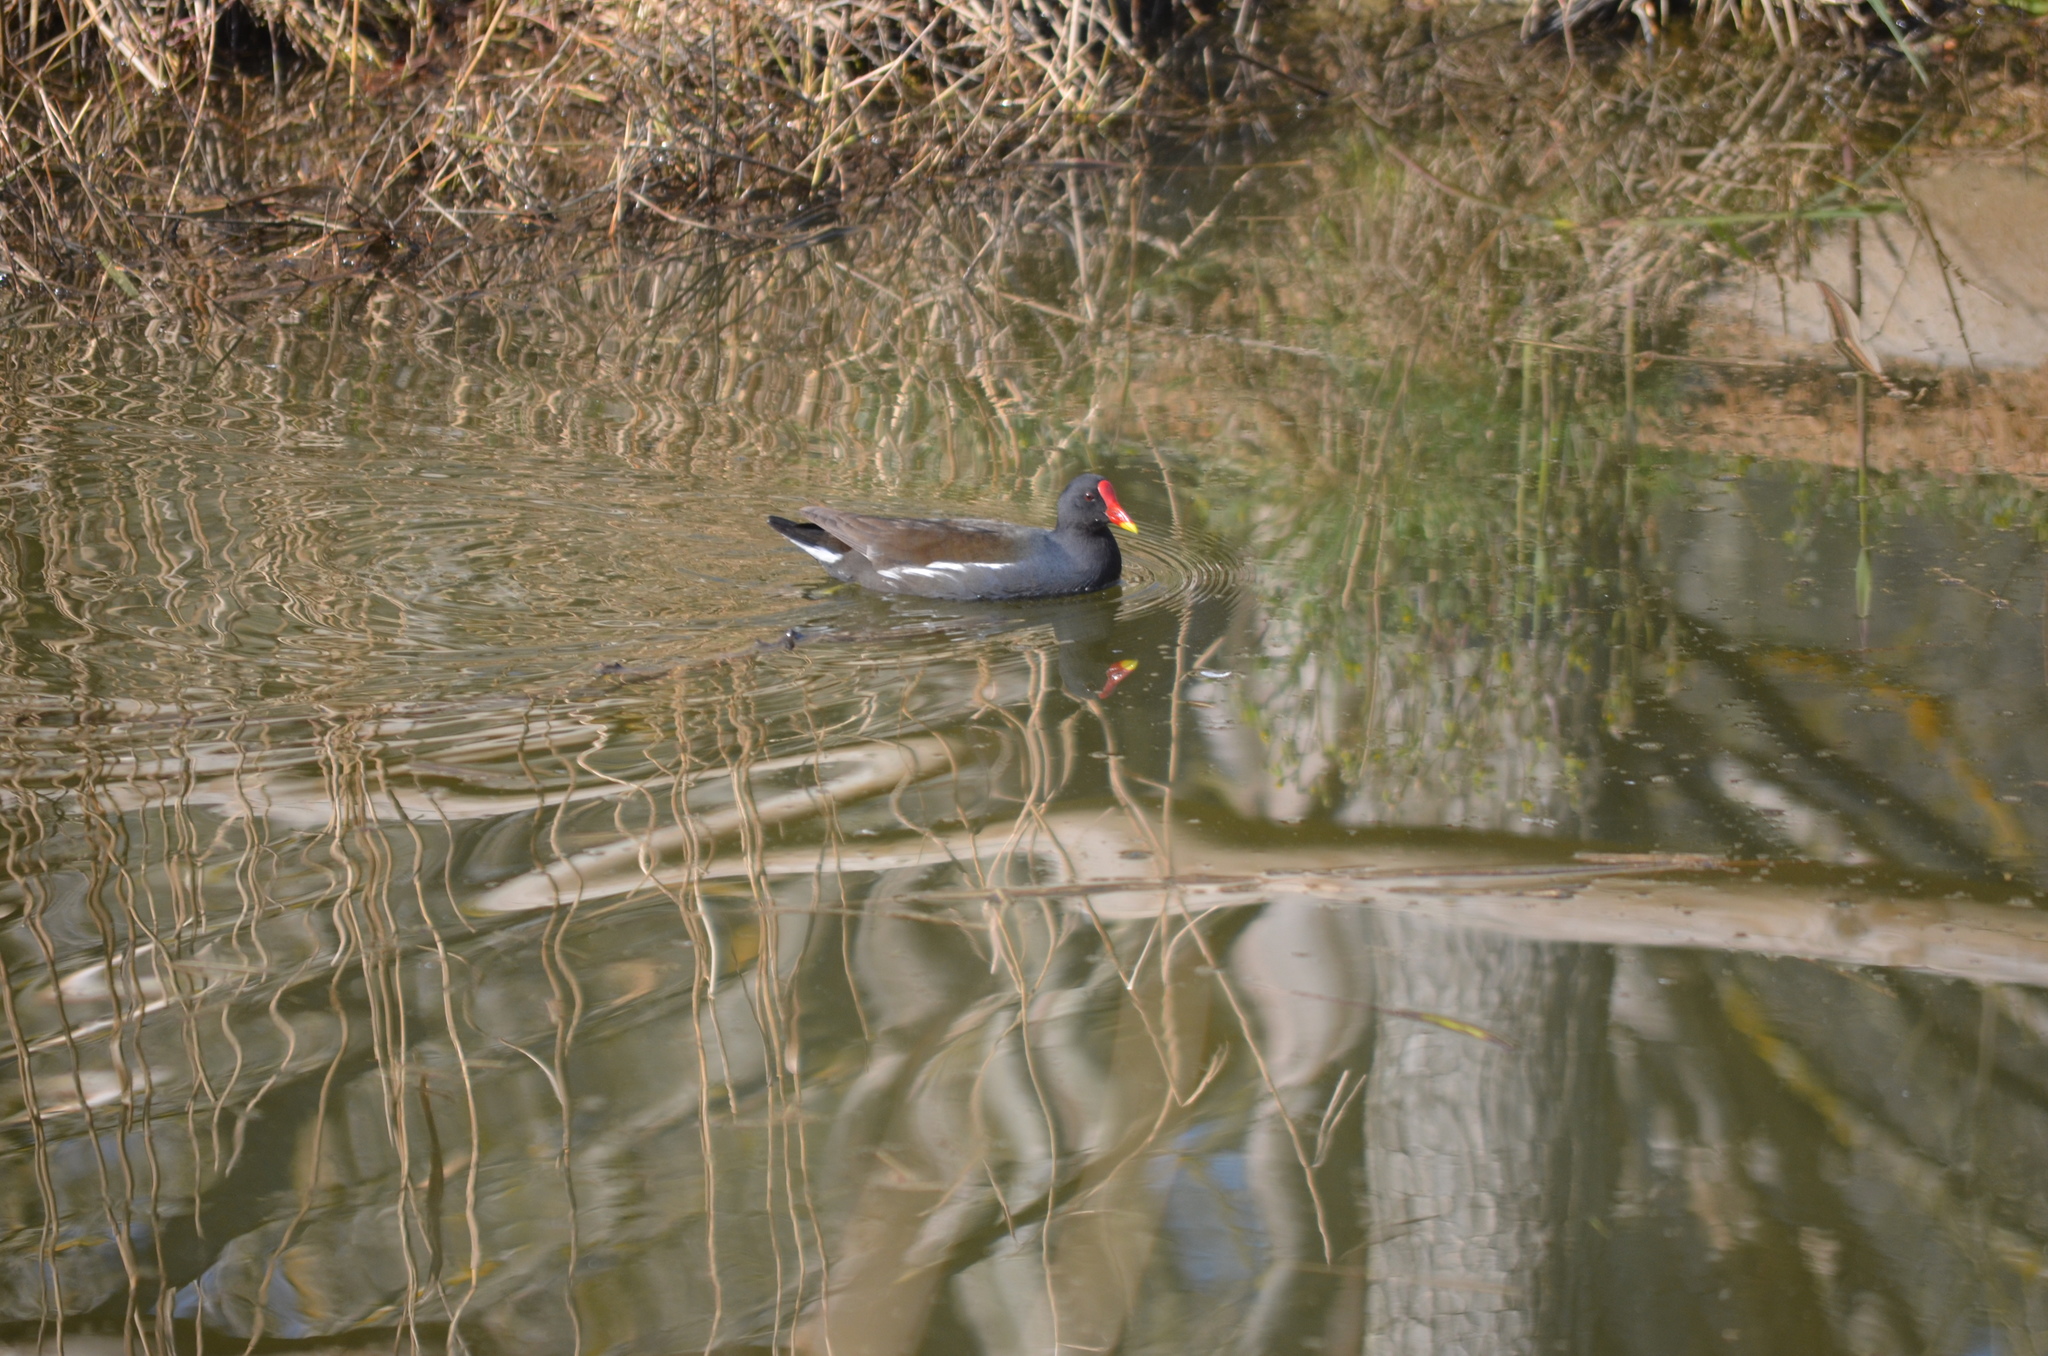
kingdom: Animalia
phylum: Chordata
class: Aves
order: Gruiformes
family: Rallidae
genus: Gallinula
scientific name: Gallinula chloropus
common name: Common moorhen
